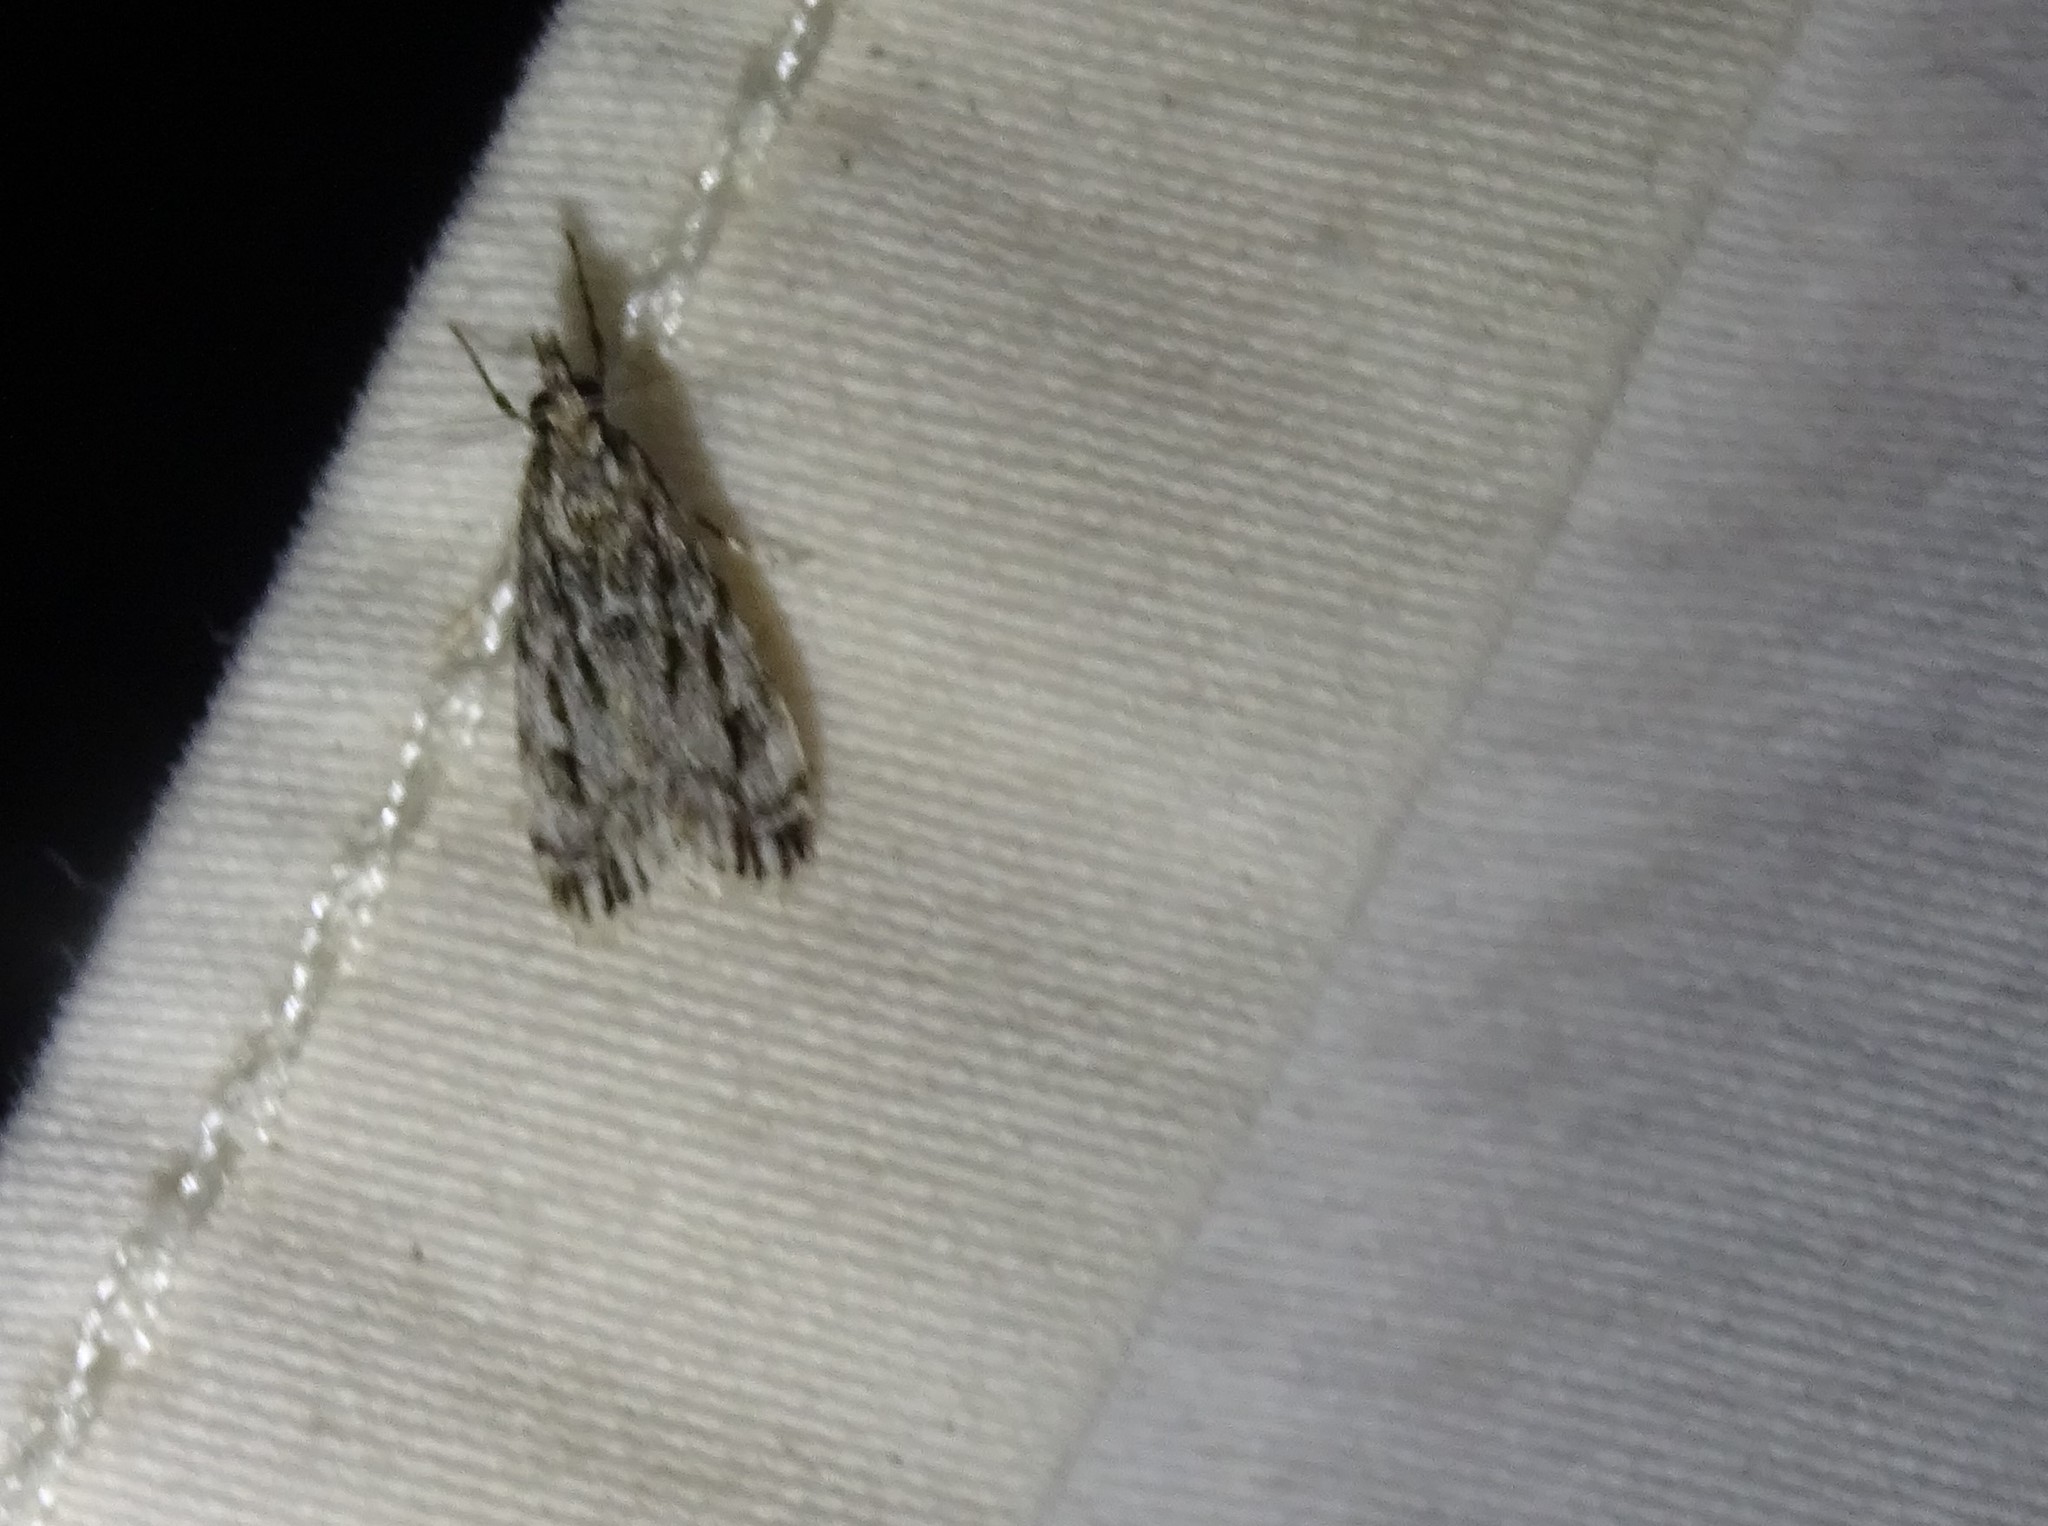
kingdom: Animalia
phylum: Arthropoda
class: Insecta
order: Lepidoptera
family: Crambidae
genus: Eudonia
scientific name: Eudonia strigalis
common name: Striped eudonia moth
